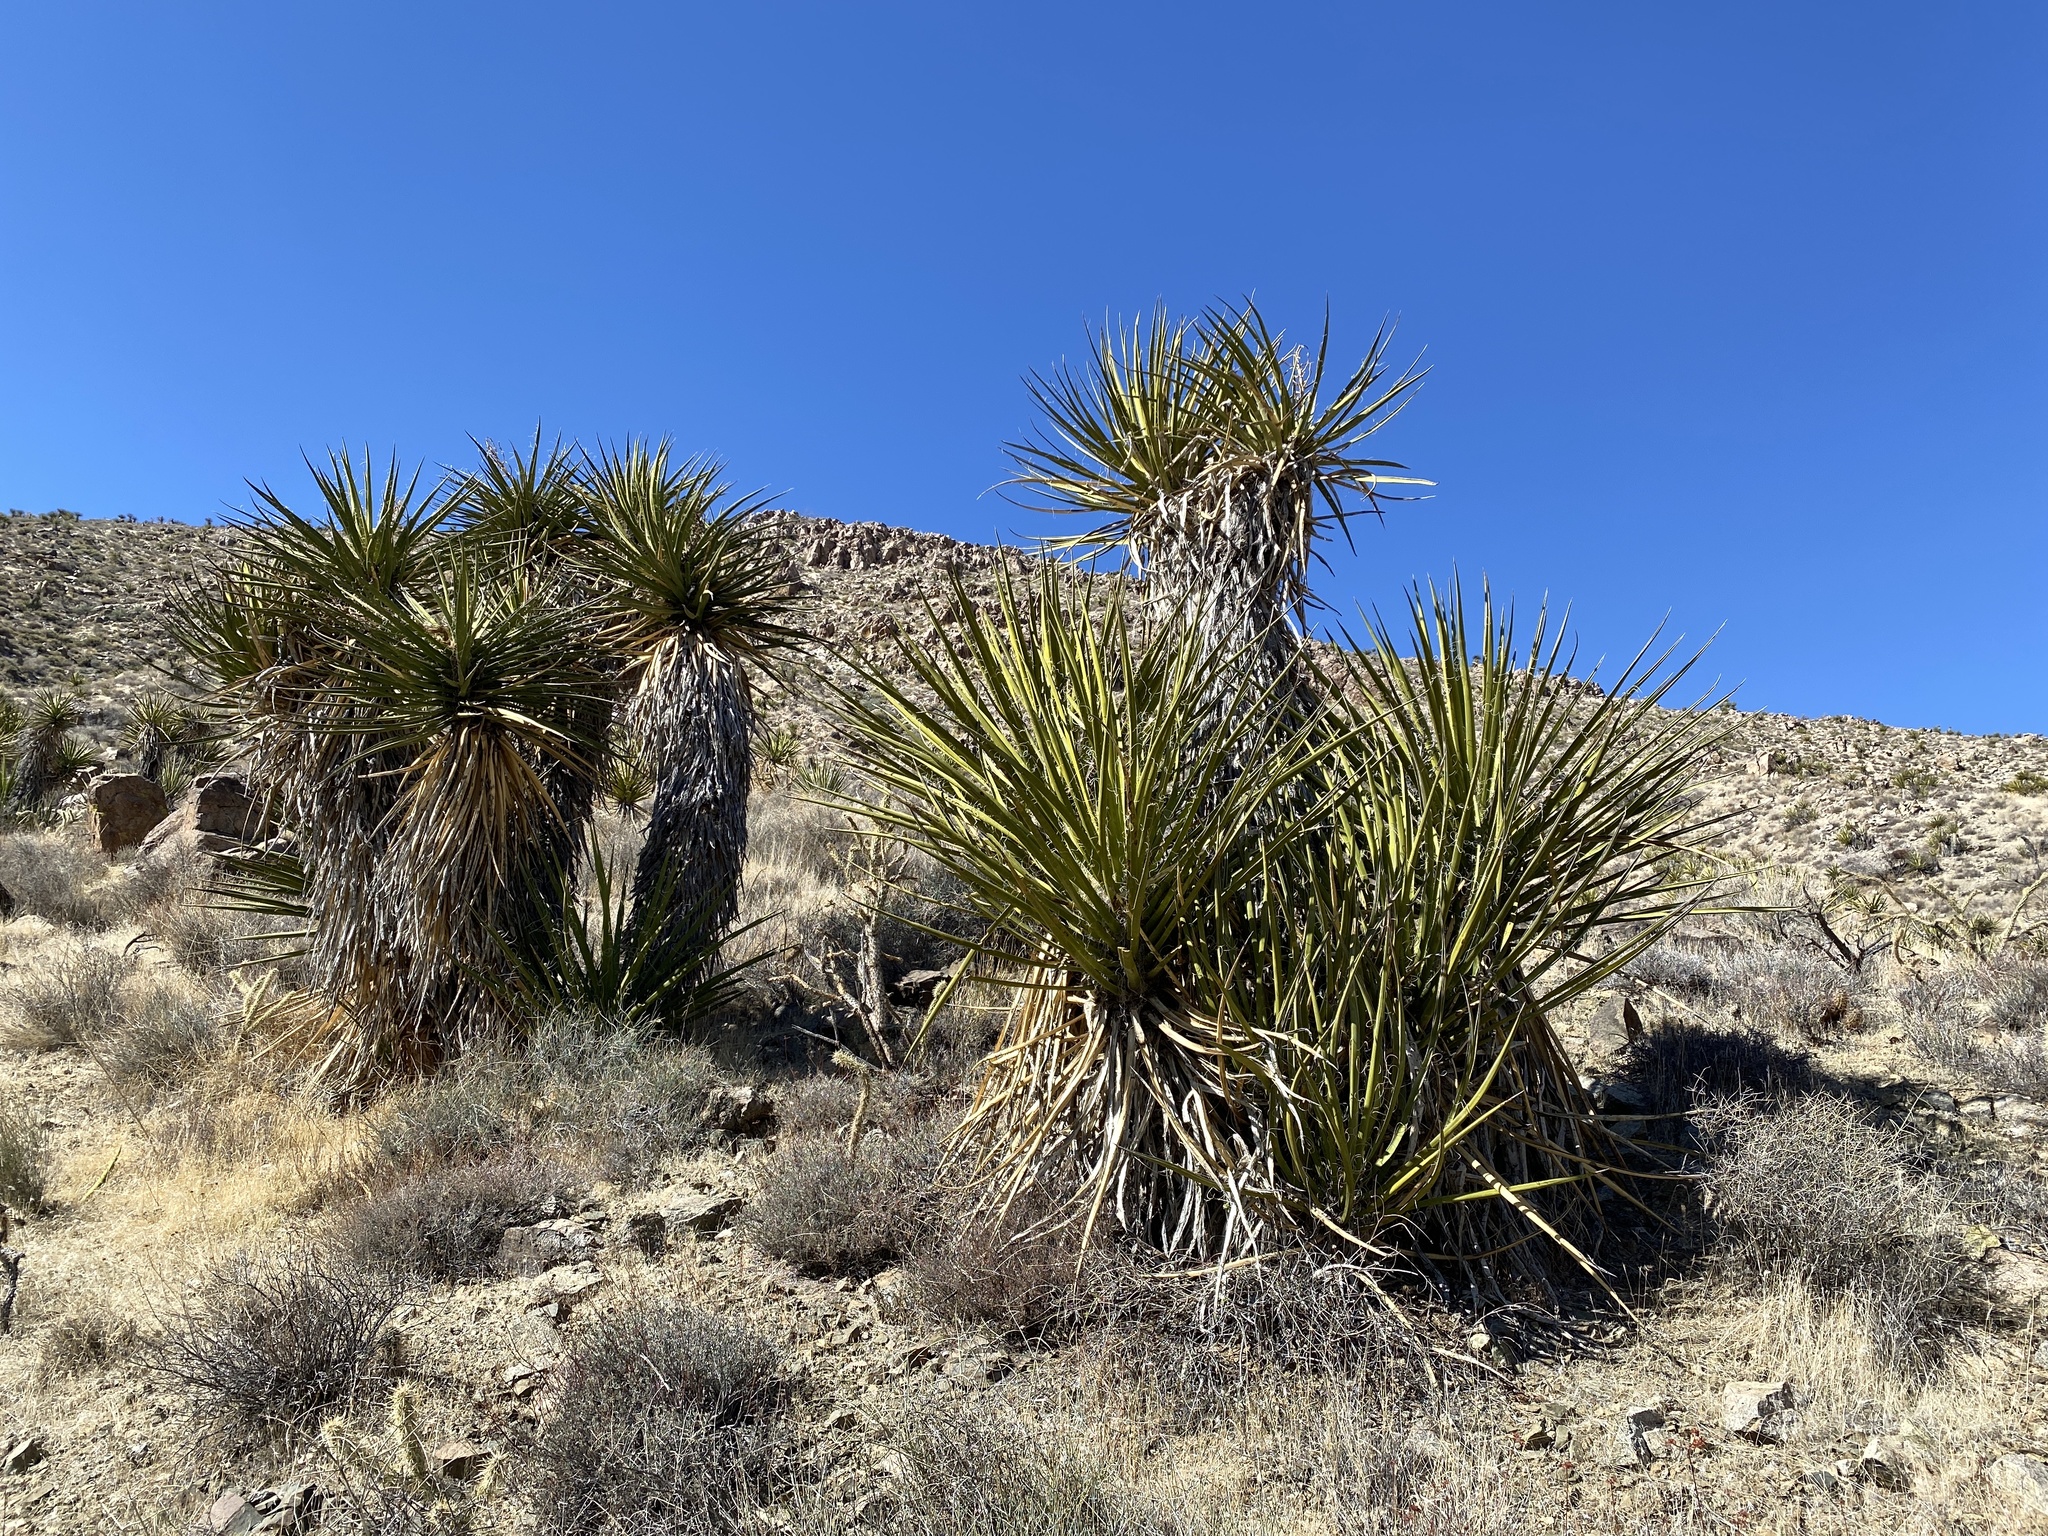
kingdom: Plantae
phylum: Tracheophyta
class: Liliopsida
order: Asparagales
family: Asparagaceae
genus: Yucca
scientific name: Yucca schidigera
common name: Mojave yucca
